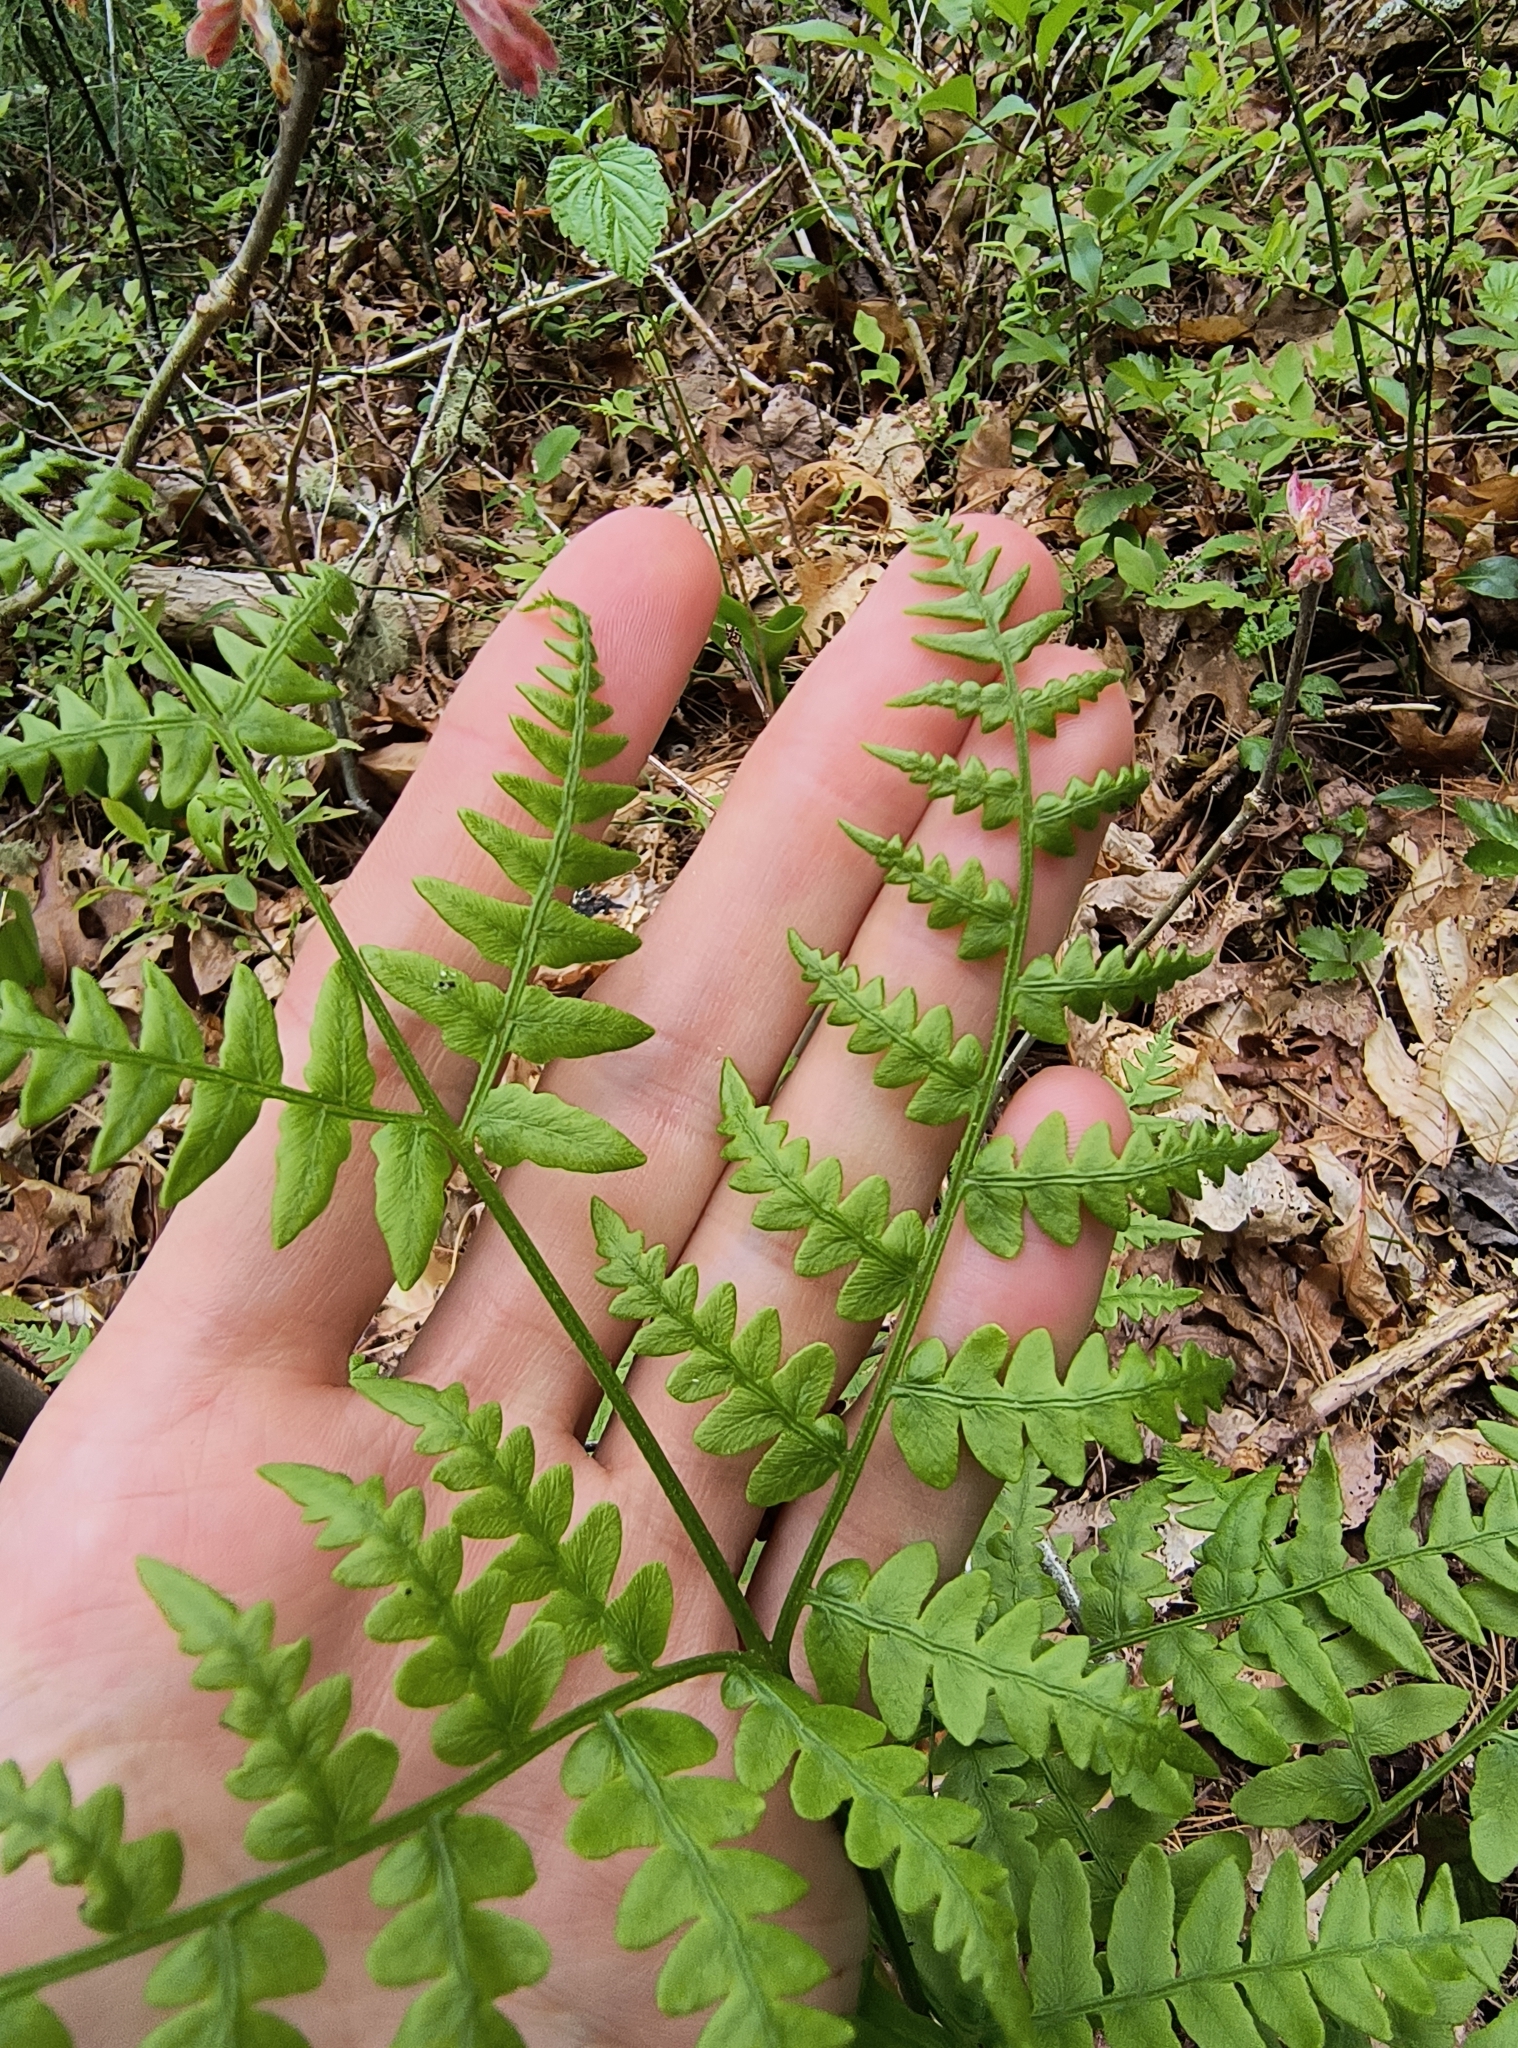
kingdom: Plantae
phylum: Tracheophyta
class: Polypodiopsida
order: Polypodiales
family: Dennstaedtiaceae
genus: Pteridium
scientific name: Pteridium aquilinum
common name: Bracken
